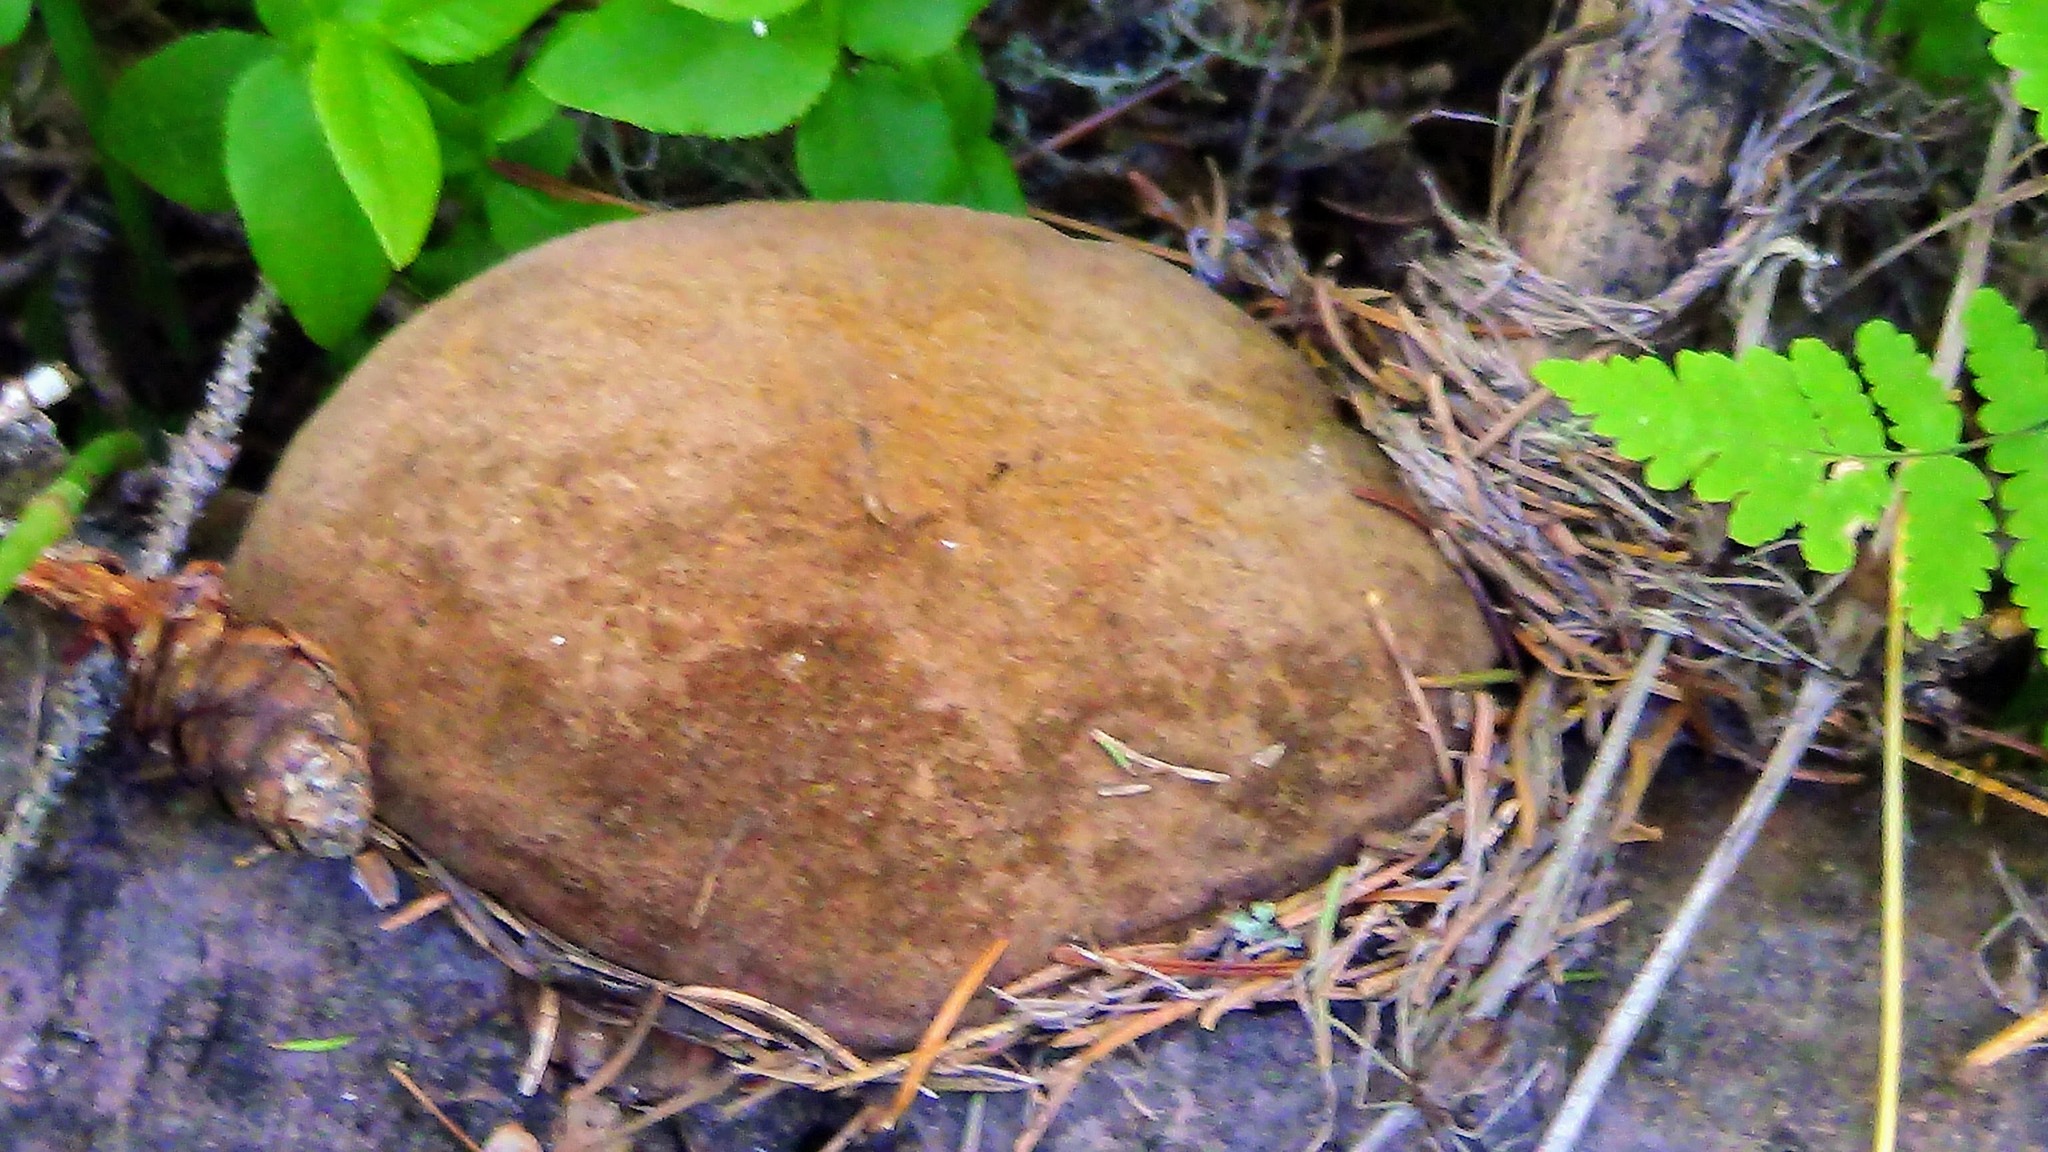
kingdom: Fungi
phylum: Basidiomycota
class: Agaricomycetes
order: Hymenochaetales
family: Hymenochaetaceae
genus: Phellinus
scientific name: Phellinus hartigii
